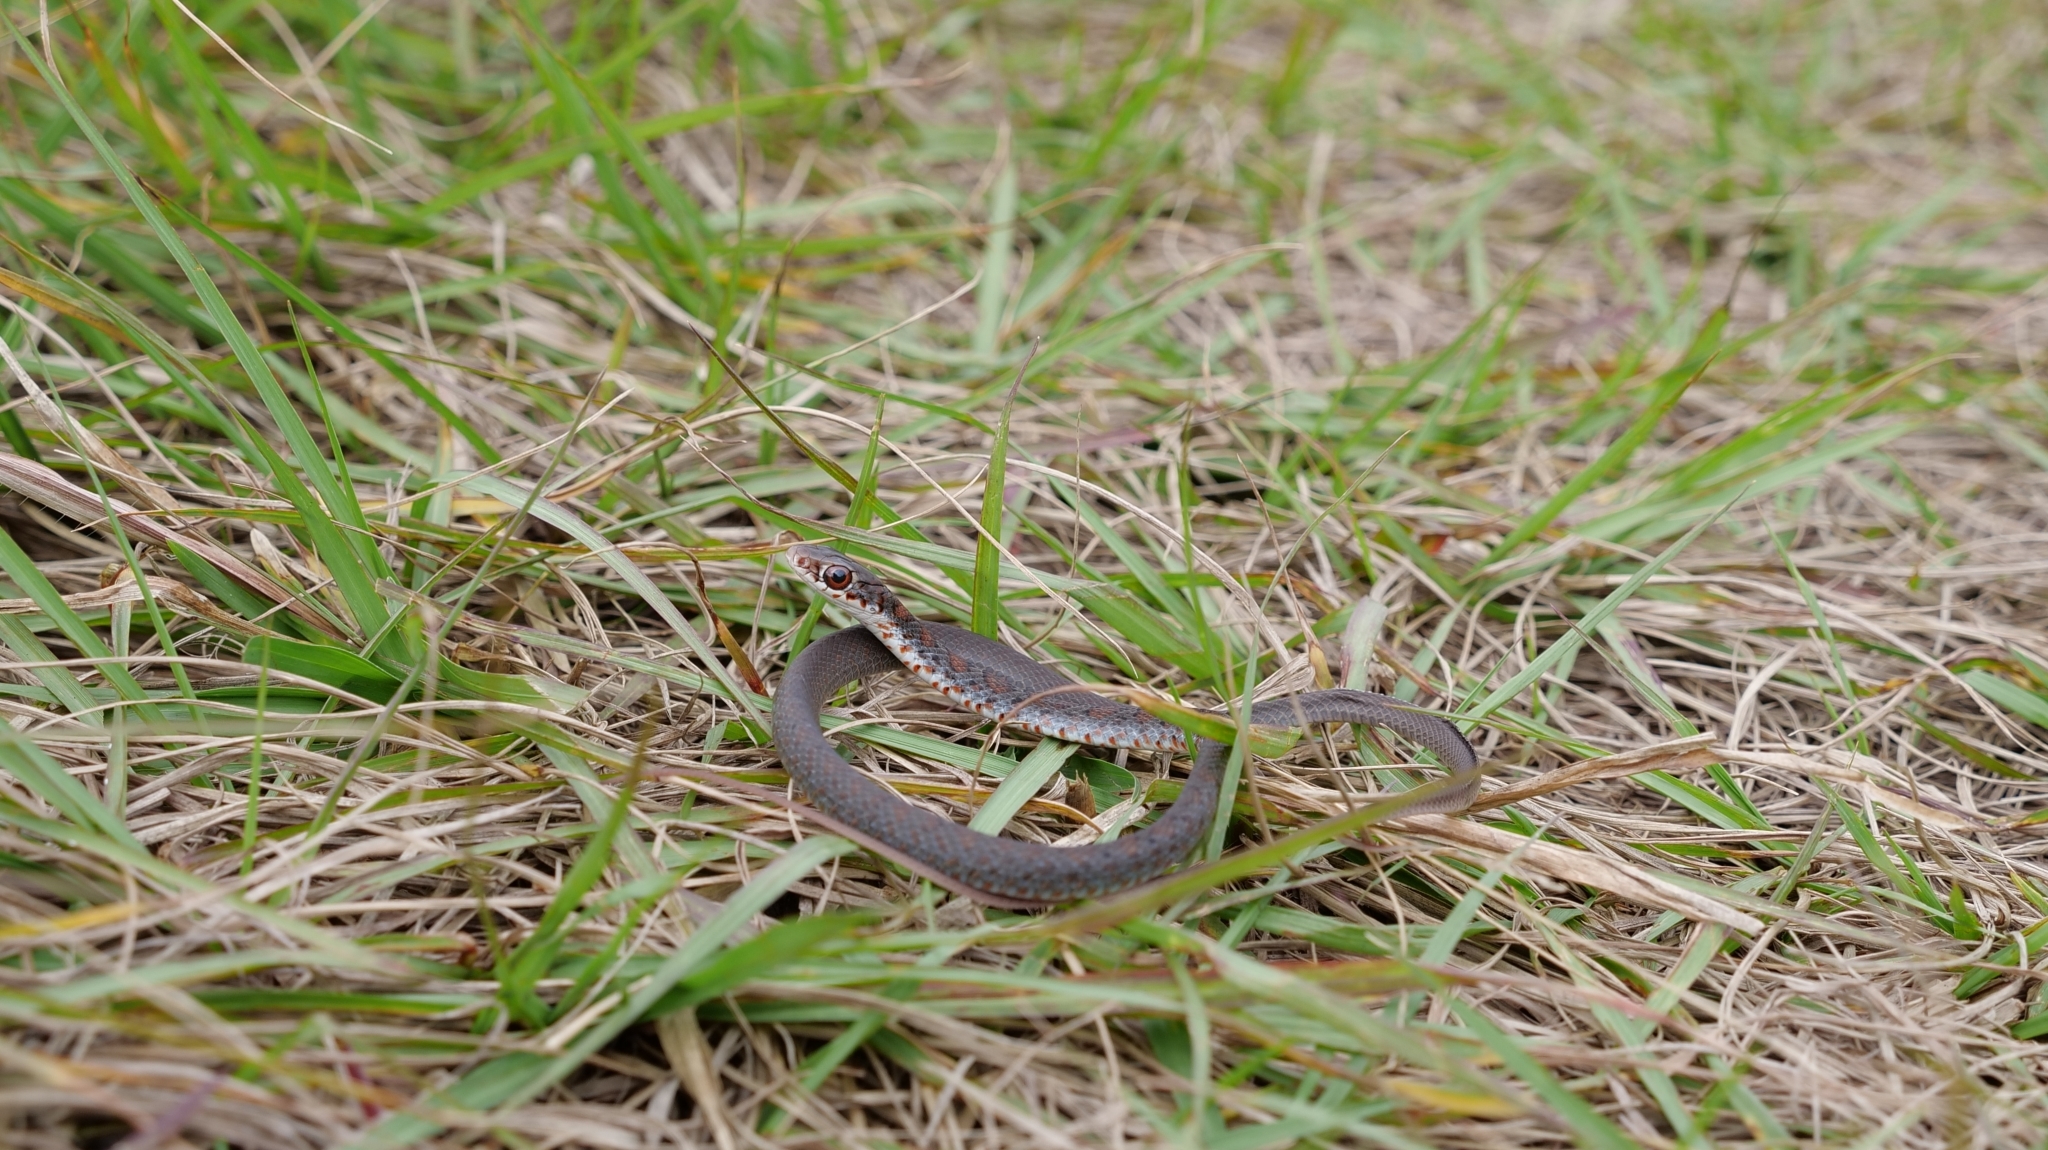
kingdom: Animalia
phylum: Chordata
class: Squamata
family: Colubridae
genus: Coluber
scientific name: Coluber constrictor
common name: Eastern racer
